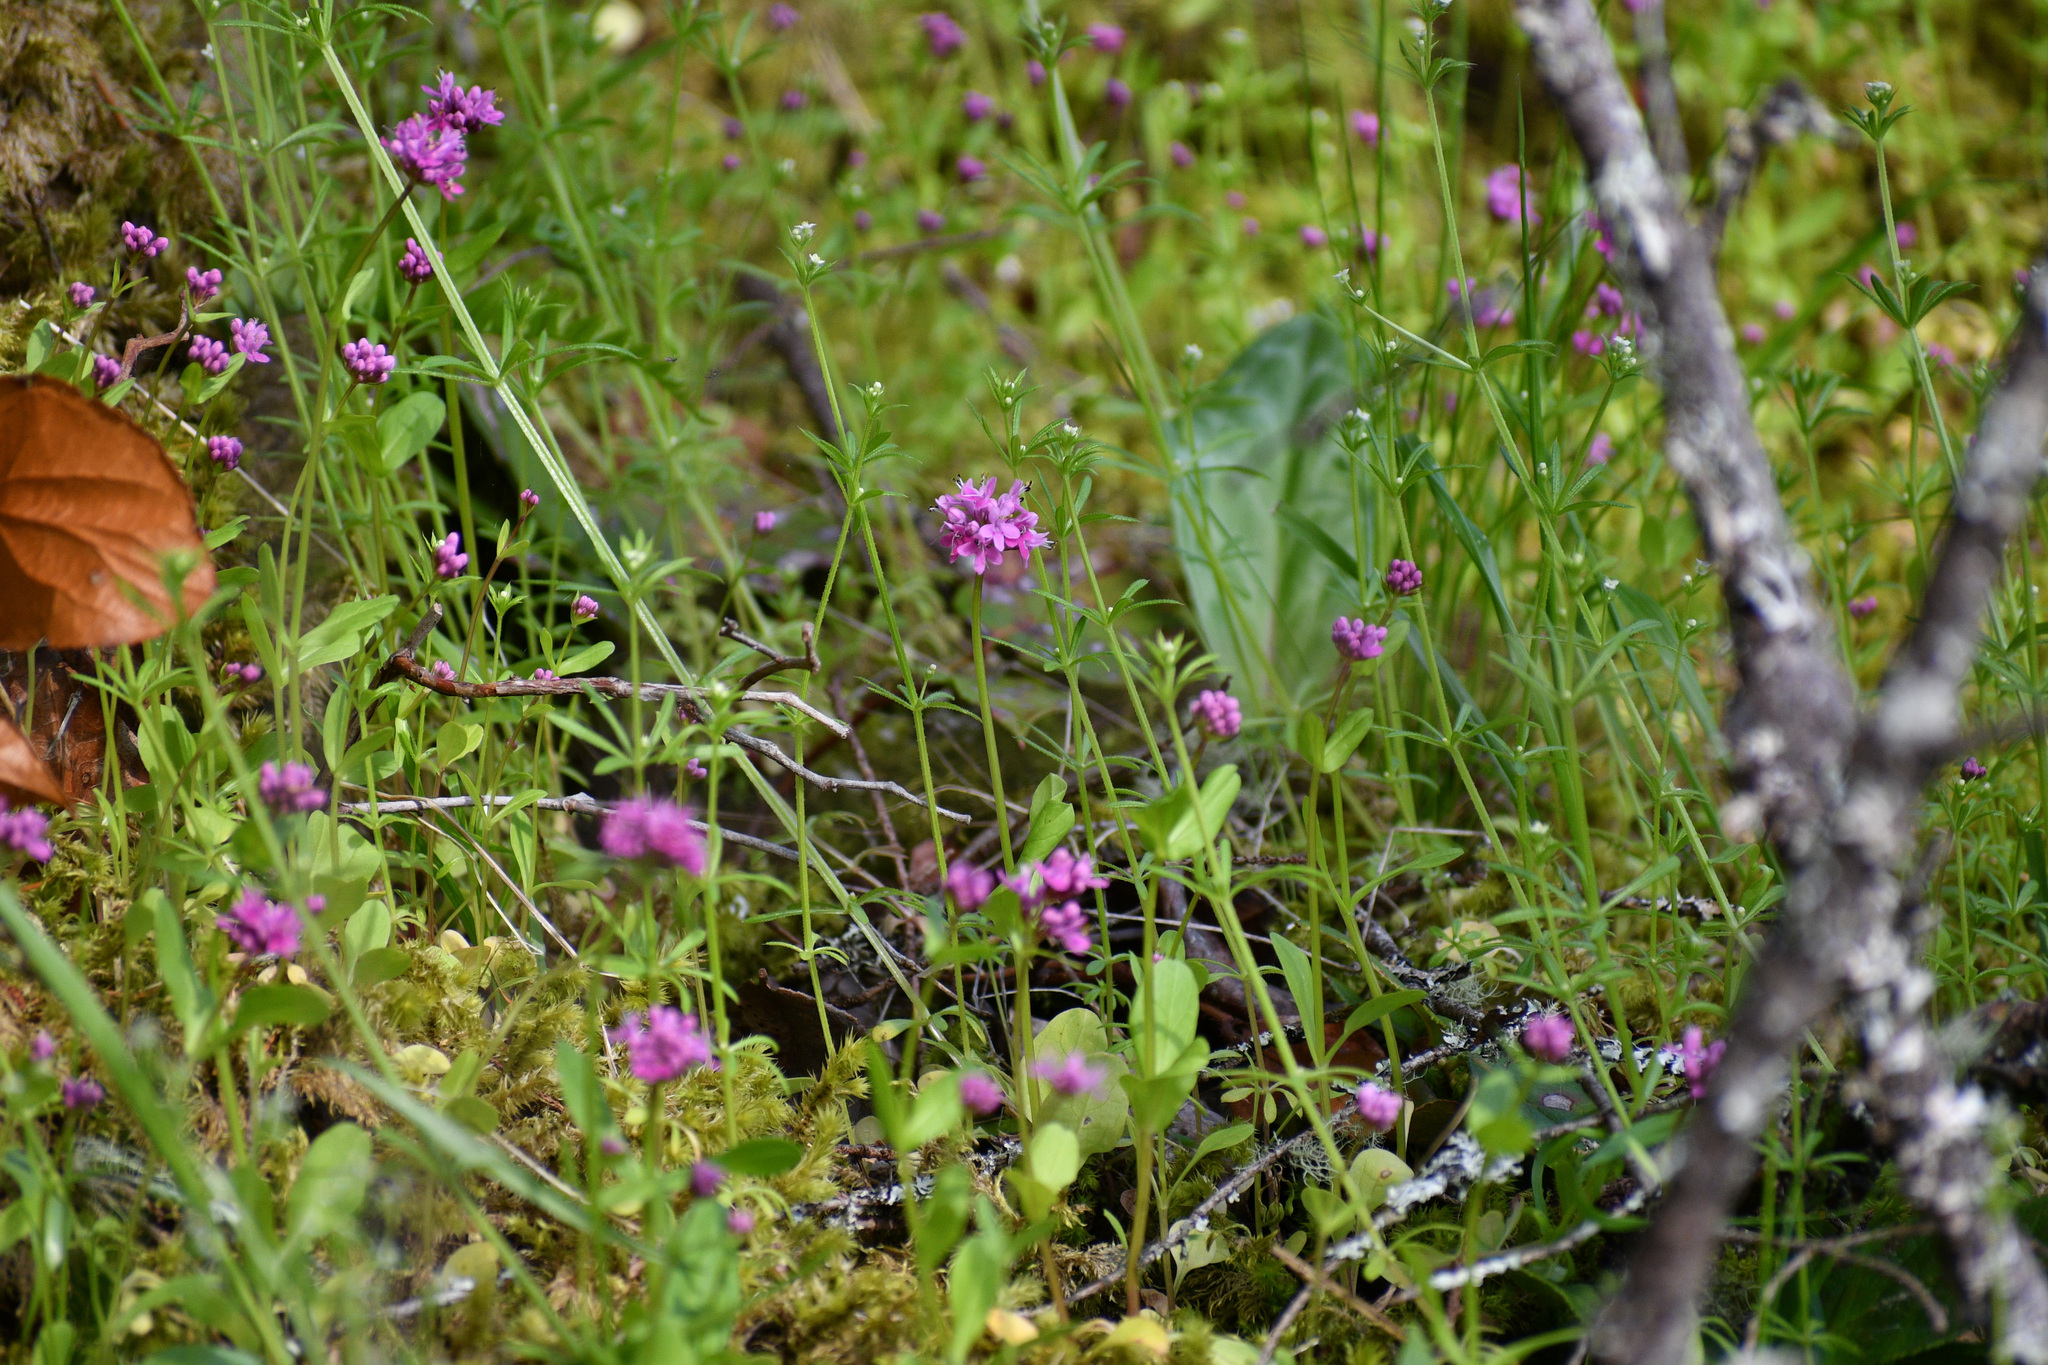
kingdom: Plantae
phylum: Tracheophyta
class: Magnoliopsida
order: Dipsacales
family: Caprifoliaceae
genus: Plectritis
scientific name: Plectritis congesta
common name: Pink plectritis
